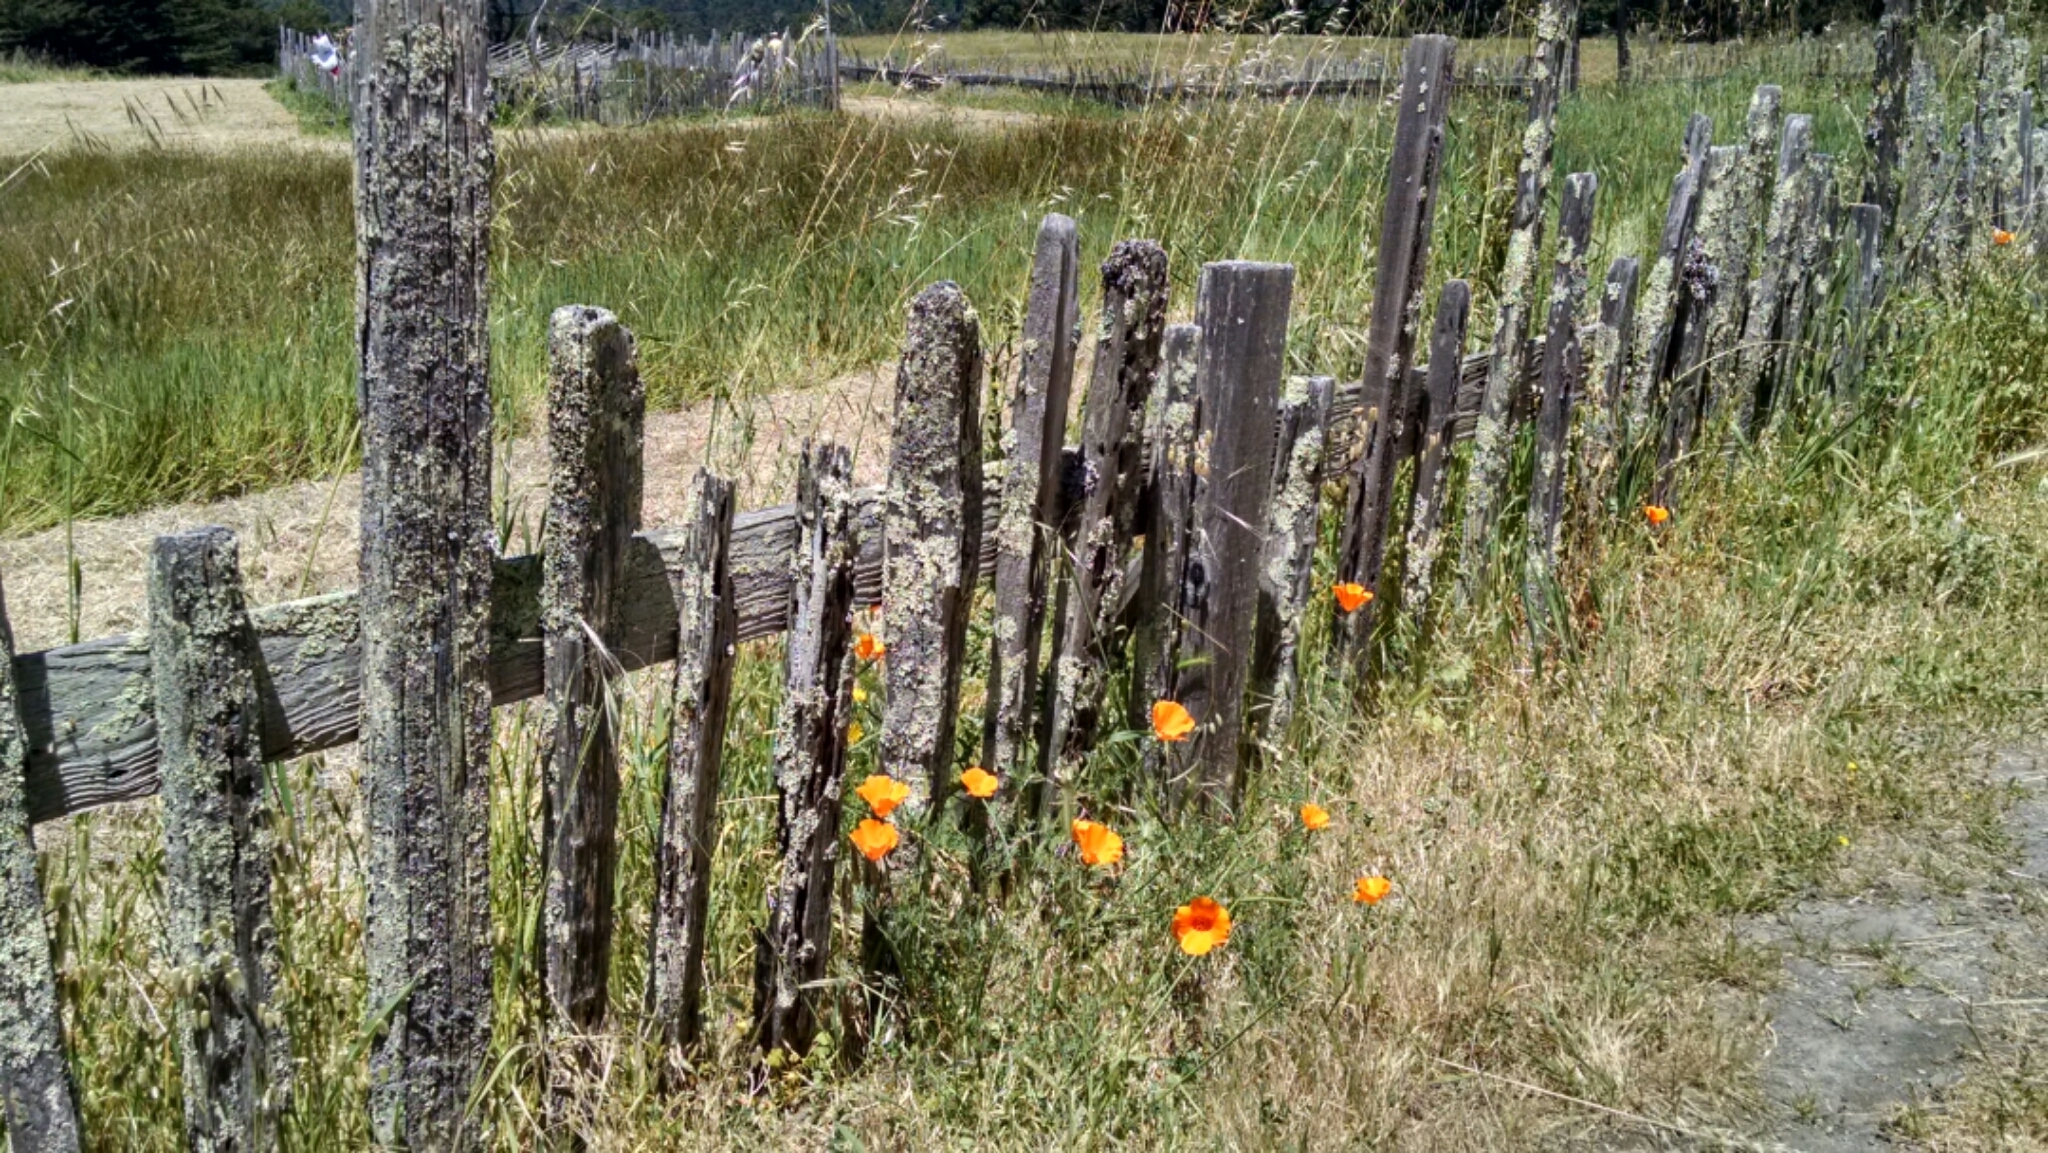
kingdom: Plantae
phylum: Tracheophyta
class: Magnoliopsida
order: Ranunculales
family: Papaveraceae
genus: Eschscholzia
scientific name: Eschscholzia californica
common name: California poppy
